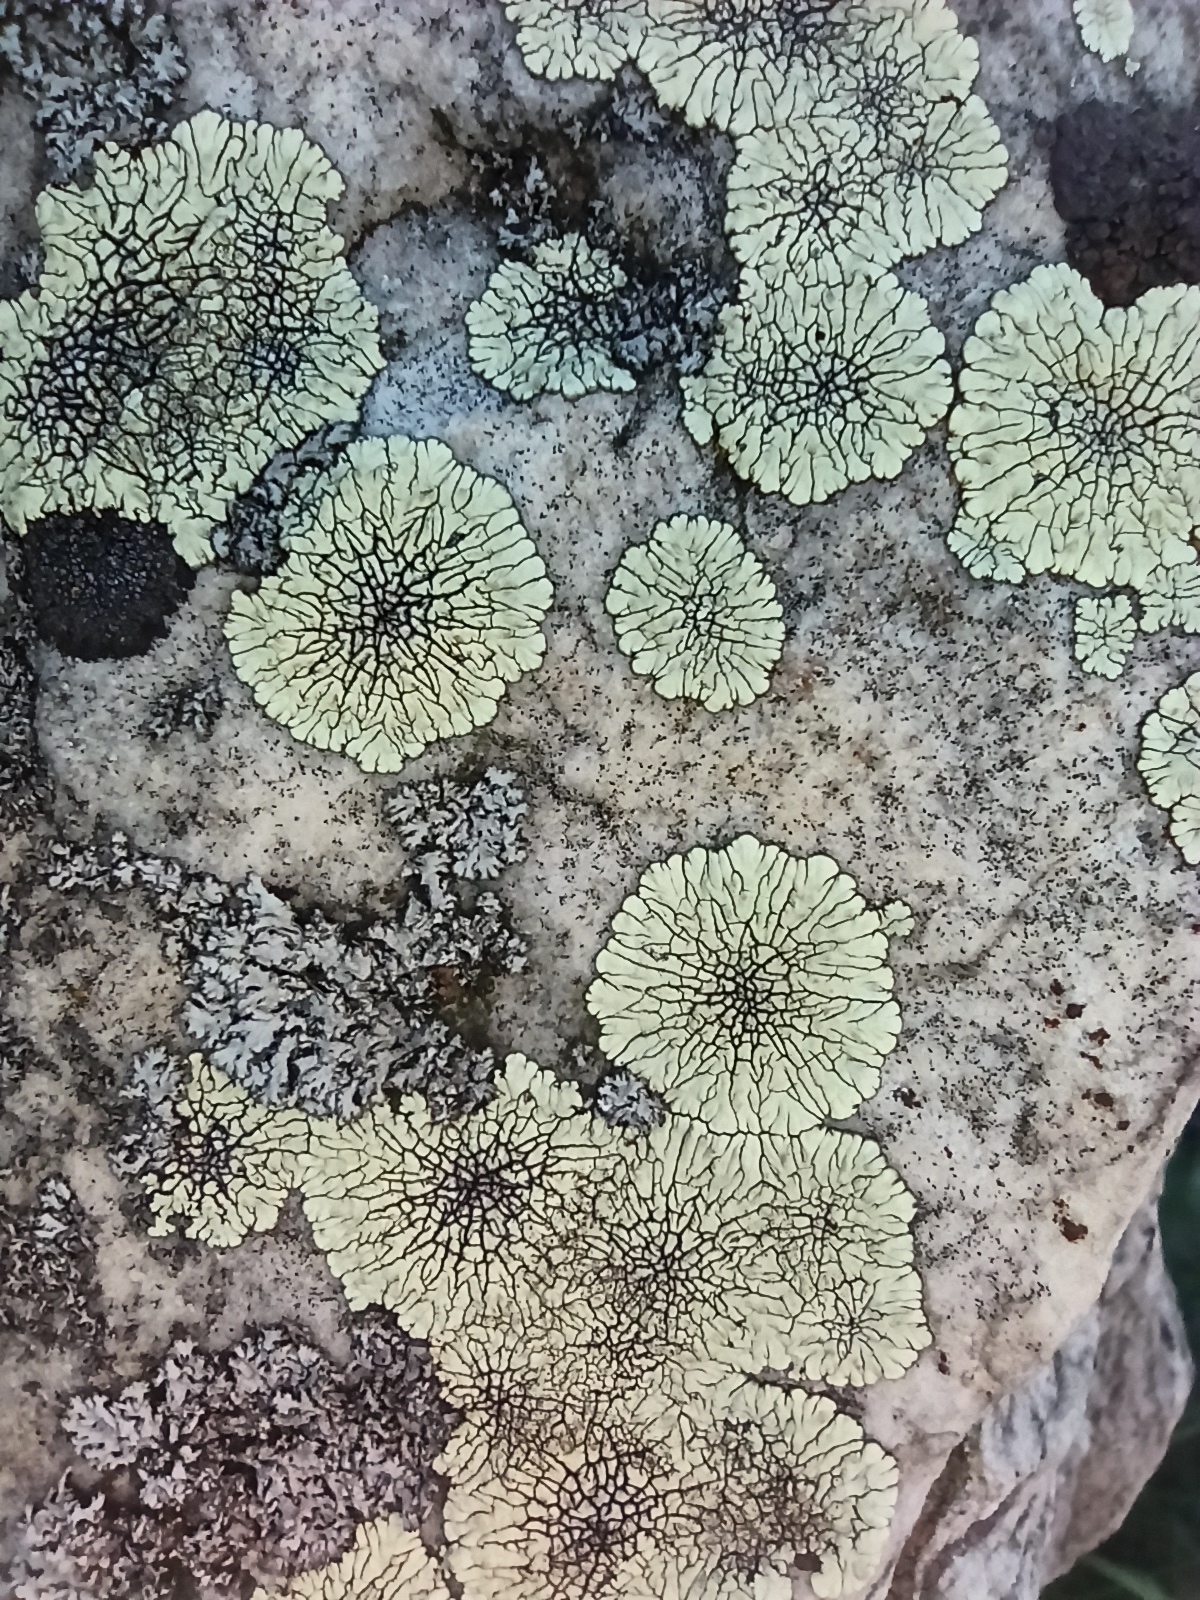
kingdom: Fungi
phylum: Ascomycota
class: Lecanoromycetes
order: Caliciales
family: Caliciaceae
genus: Dimelaena
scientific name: Dimelaena oreina
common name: Golden moonglow lichen
